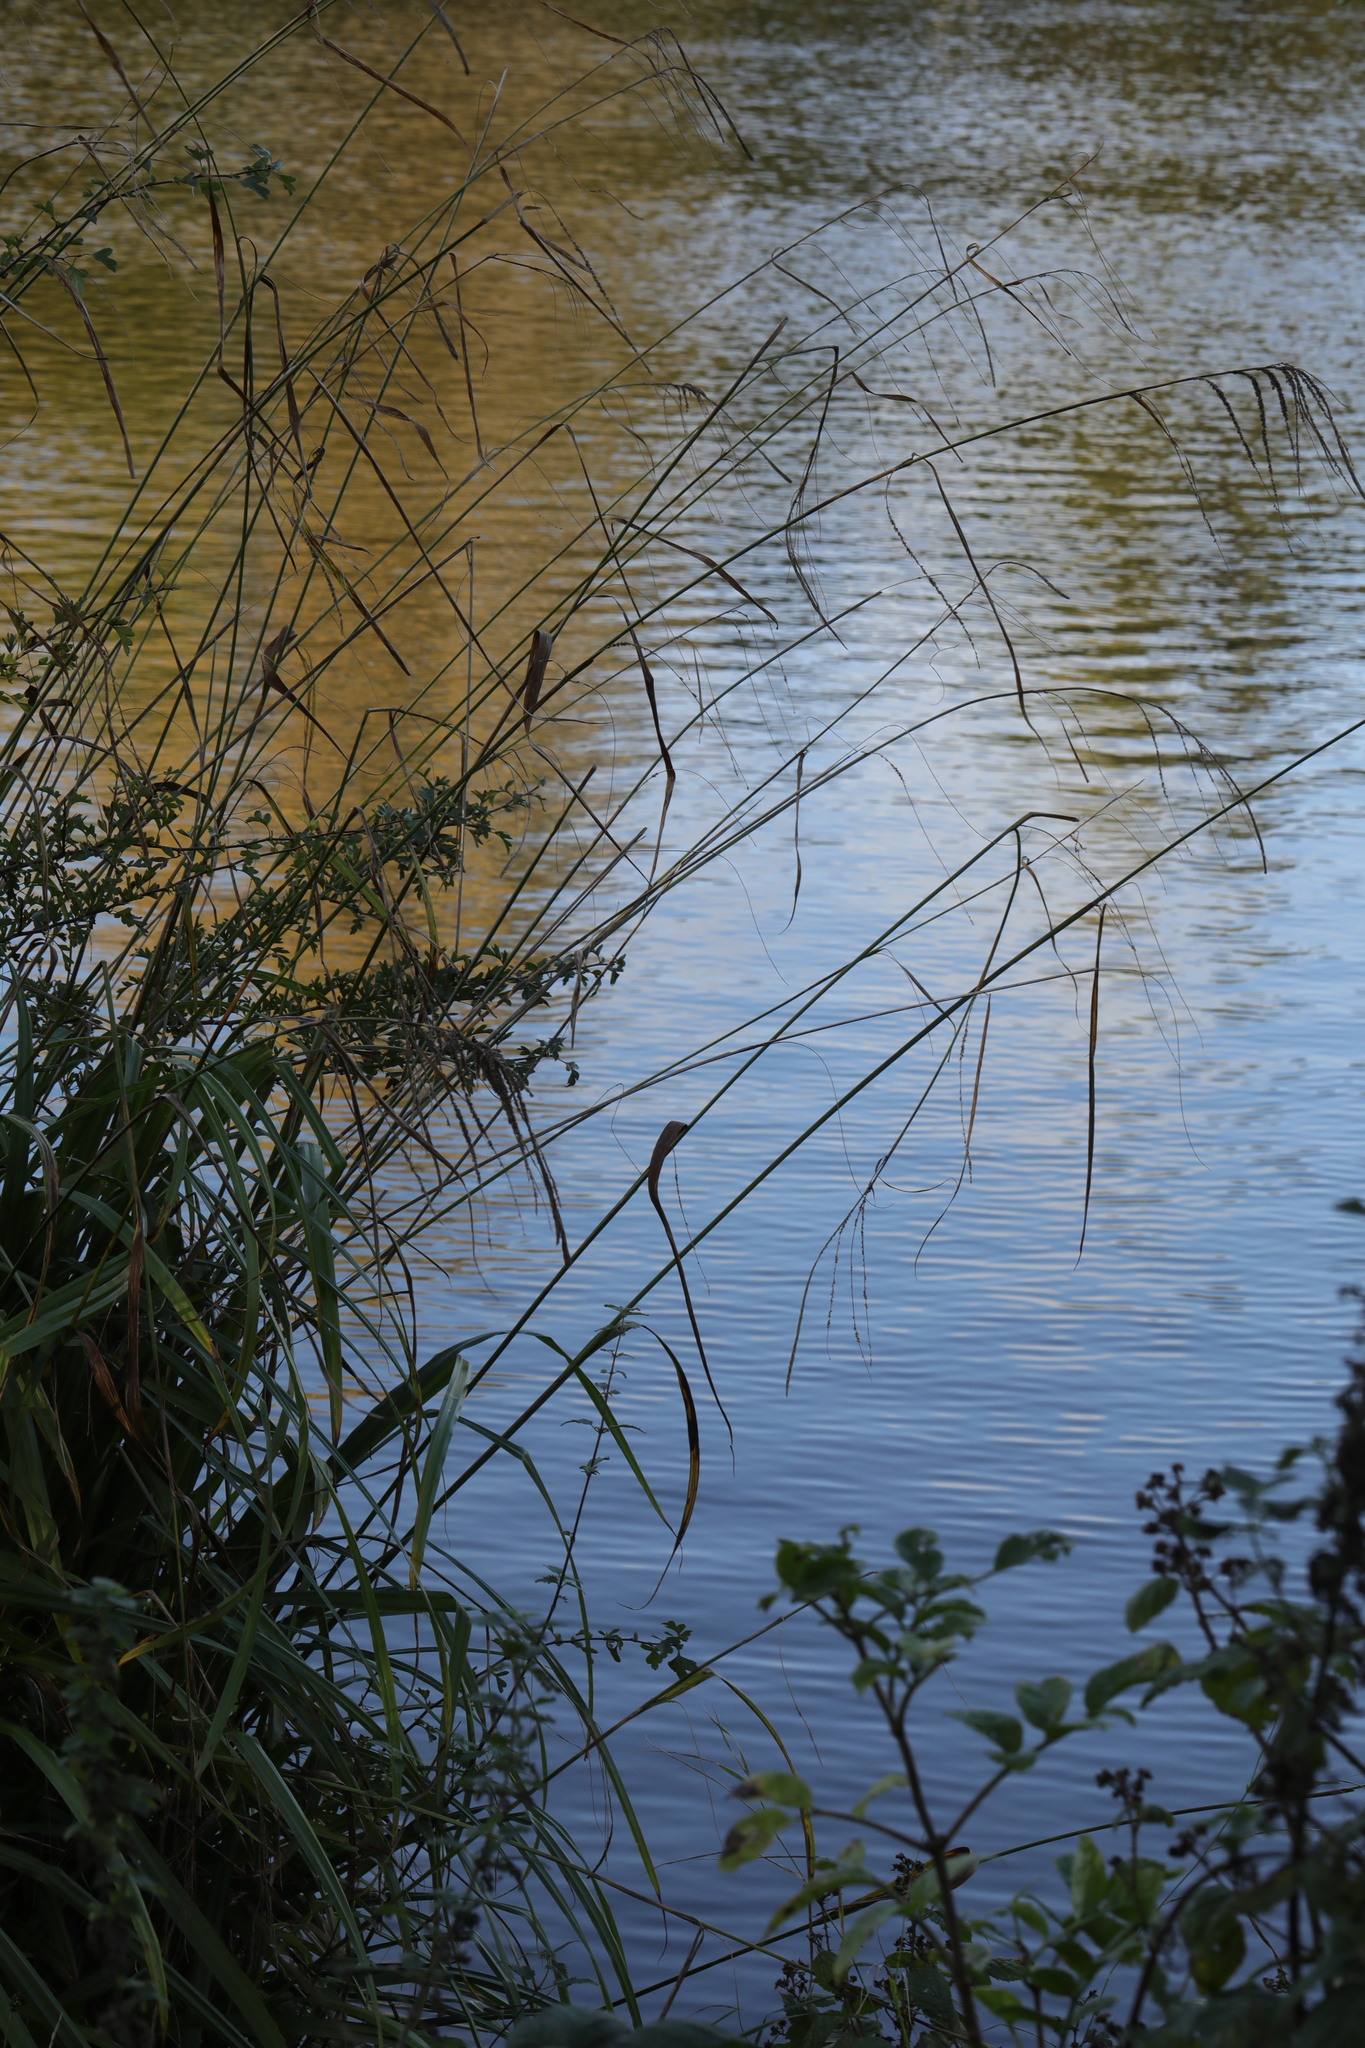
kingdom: Plantae
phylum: Tracheophyta
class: Liliopsida
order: Poales
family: Cyperaceae
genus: Carex
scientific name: Carex pendula
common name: Pendulous sedge
